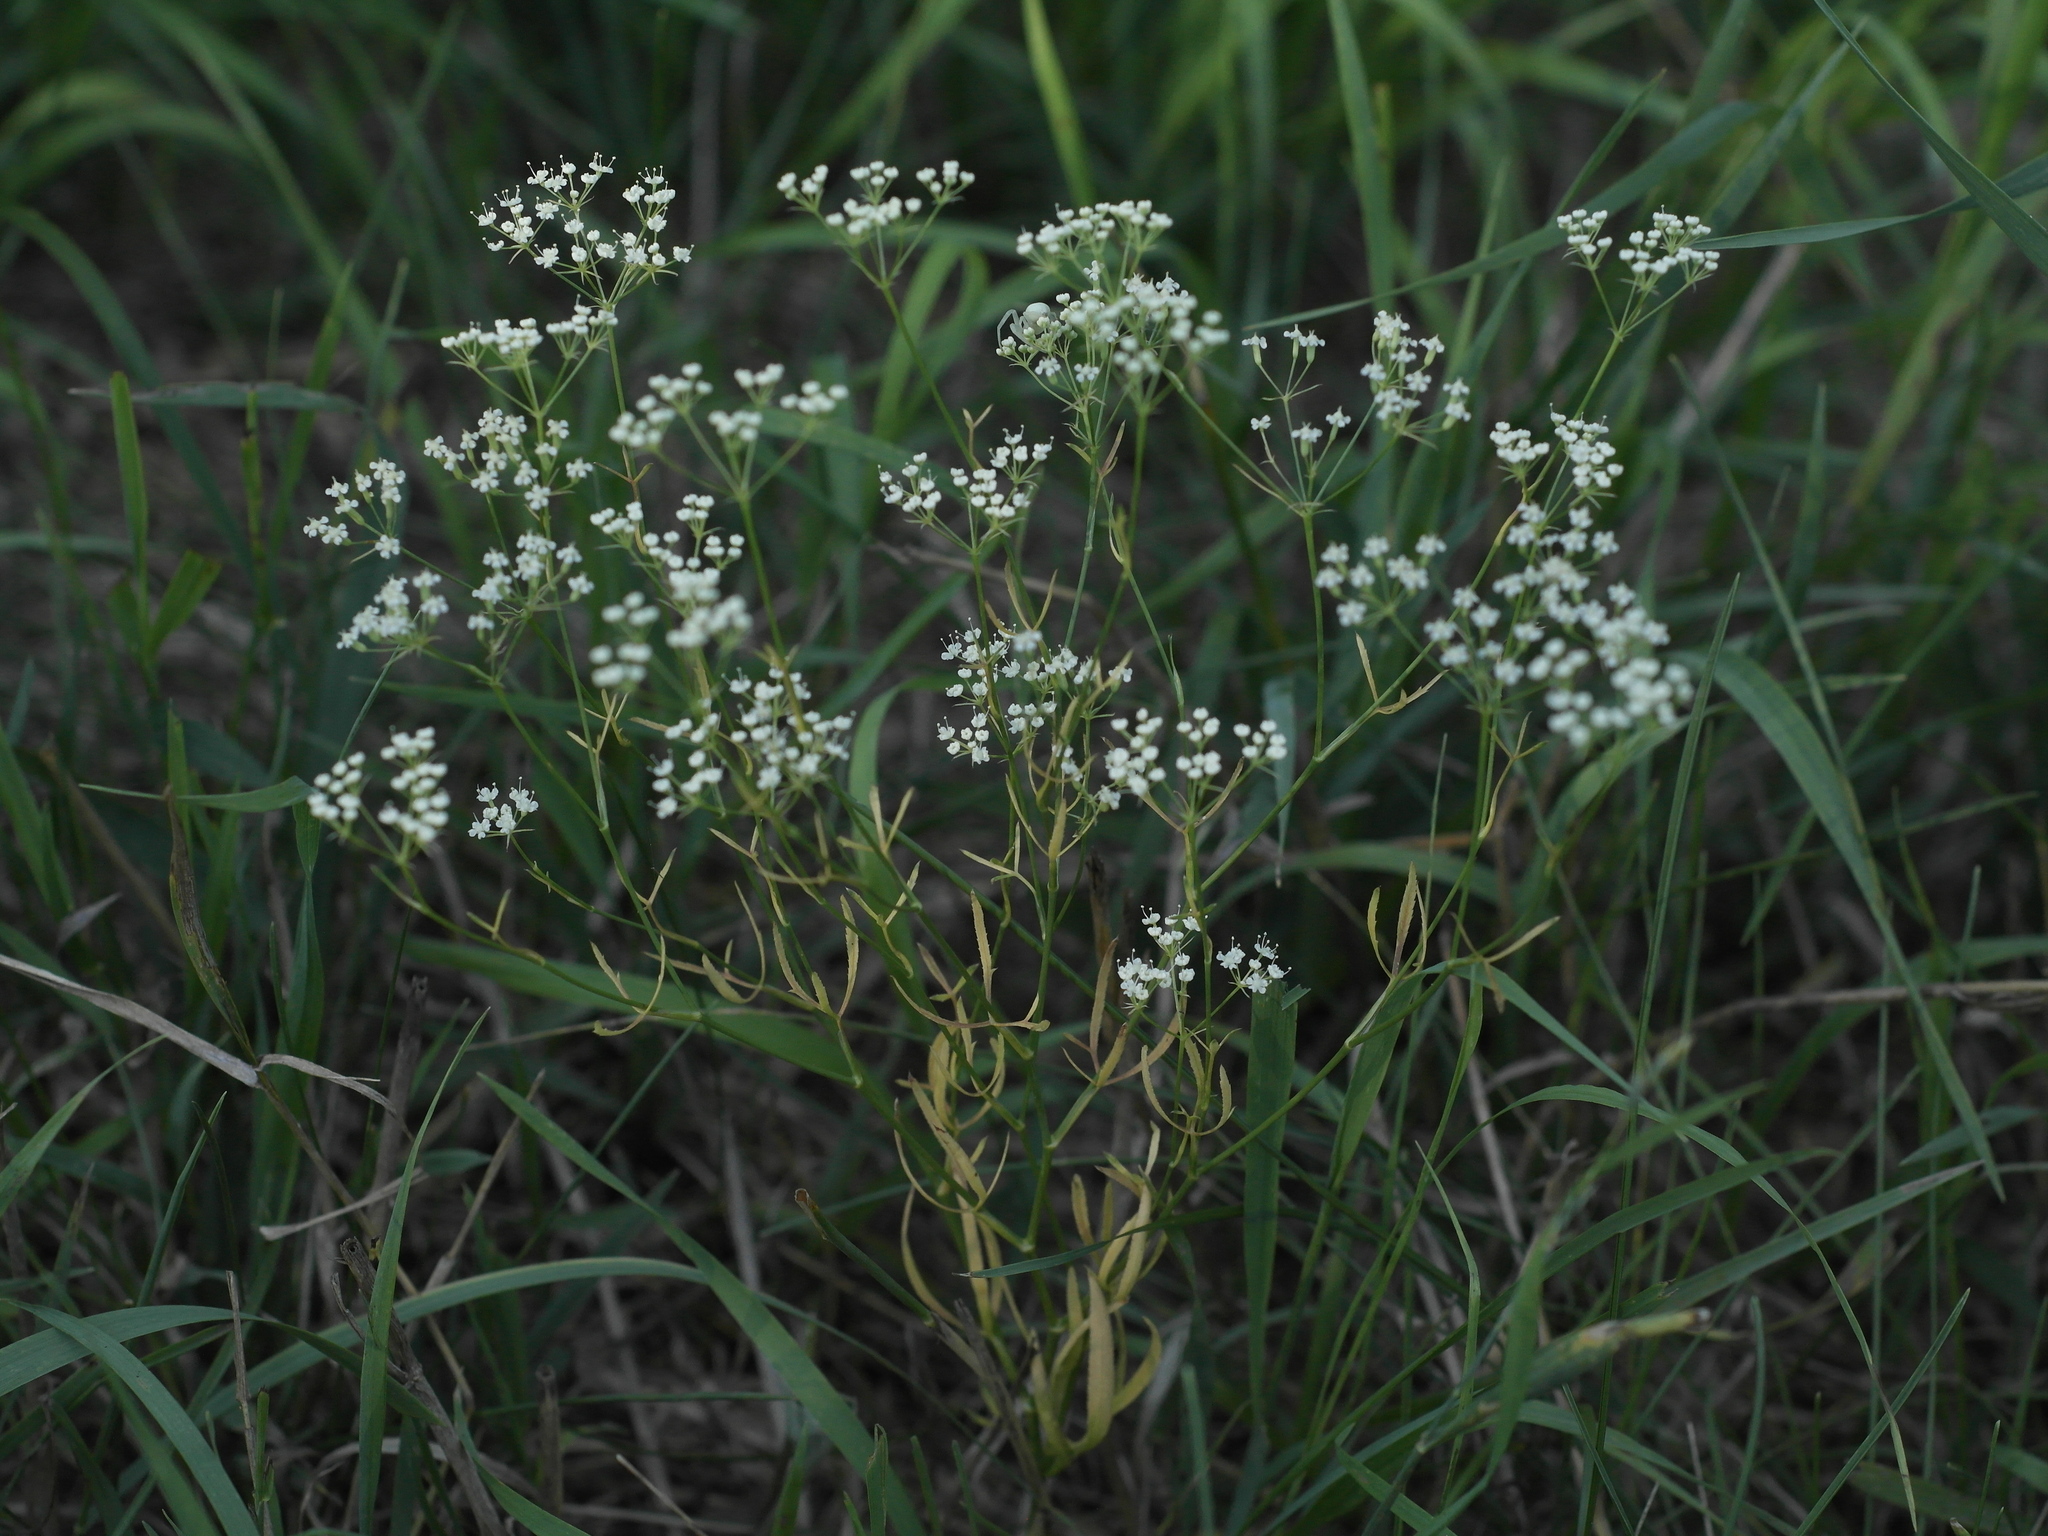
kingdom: Plantae
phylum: Tracheophyta
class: Magnoliopsida
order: Apiales
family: Apiaceae
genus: Falcaria
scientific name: Falcaria vulgaris
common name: Longleaf
